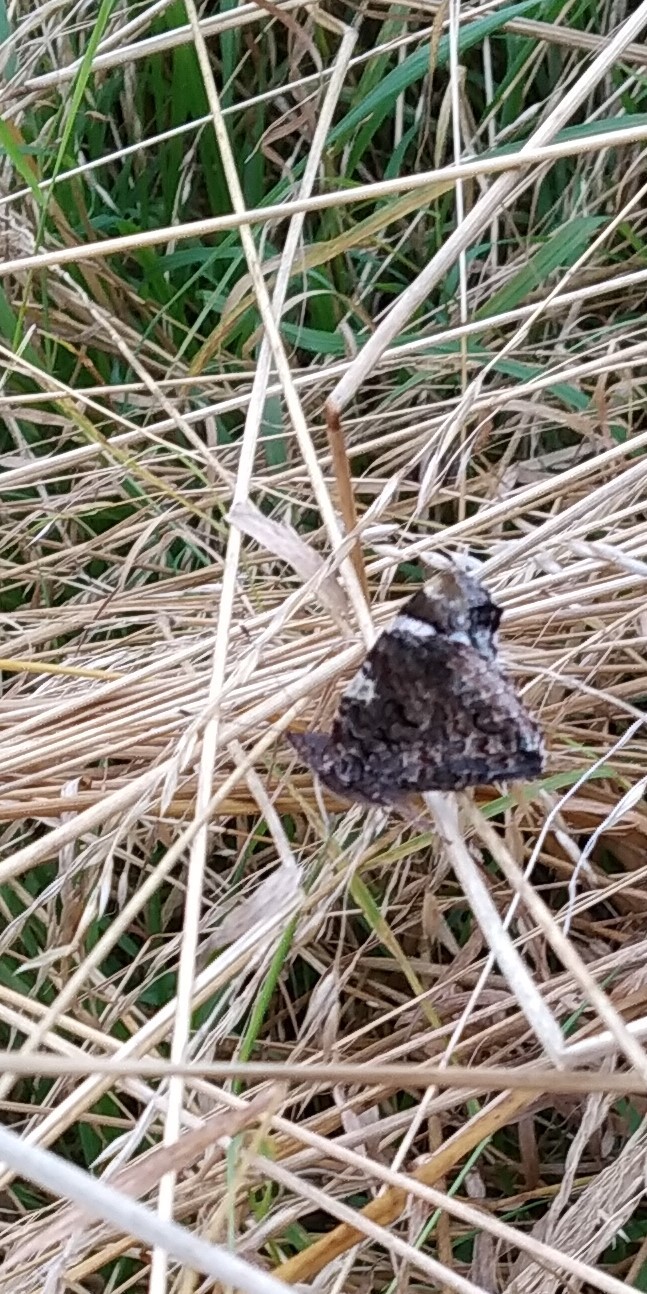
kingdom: Animalia
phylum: Arthropoda
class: Insecta
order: Lepidoptera
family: Nymphalidae
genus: Vanessa
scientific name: Vanessa atalanta
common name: Red admiral
